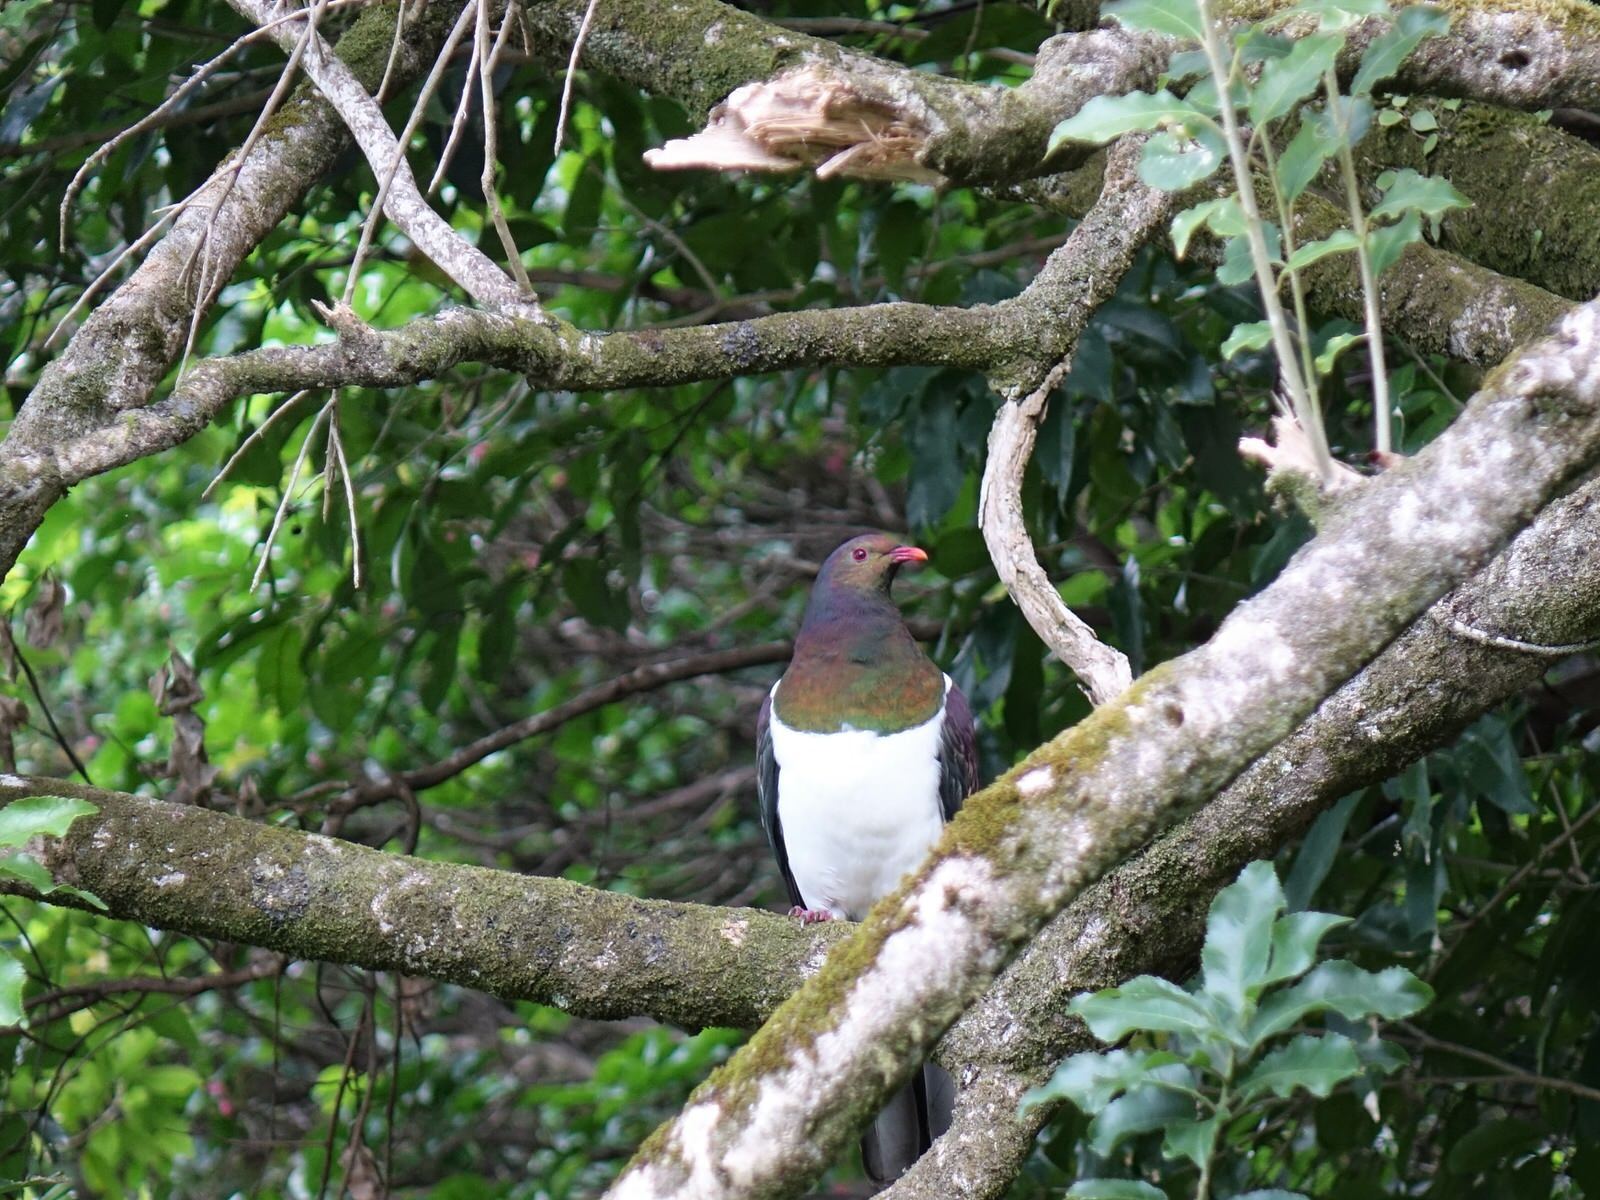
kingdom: Animalia
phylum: Chordata
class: Aves
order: Columbiformes
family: Columbidae
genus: Hemiphaga
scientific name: Hemiphaga novaeseelandiae
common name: New zealand pigeon
